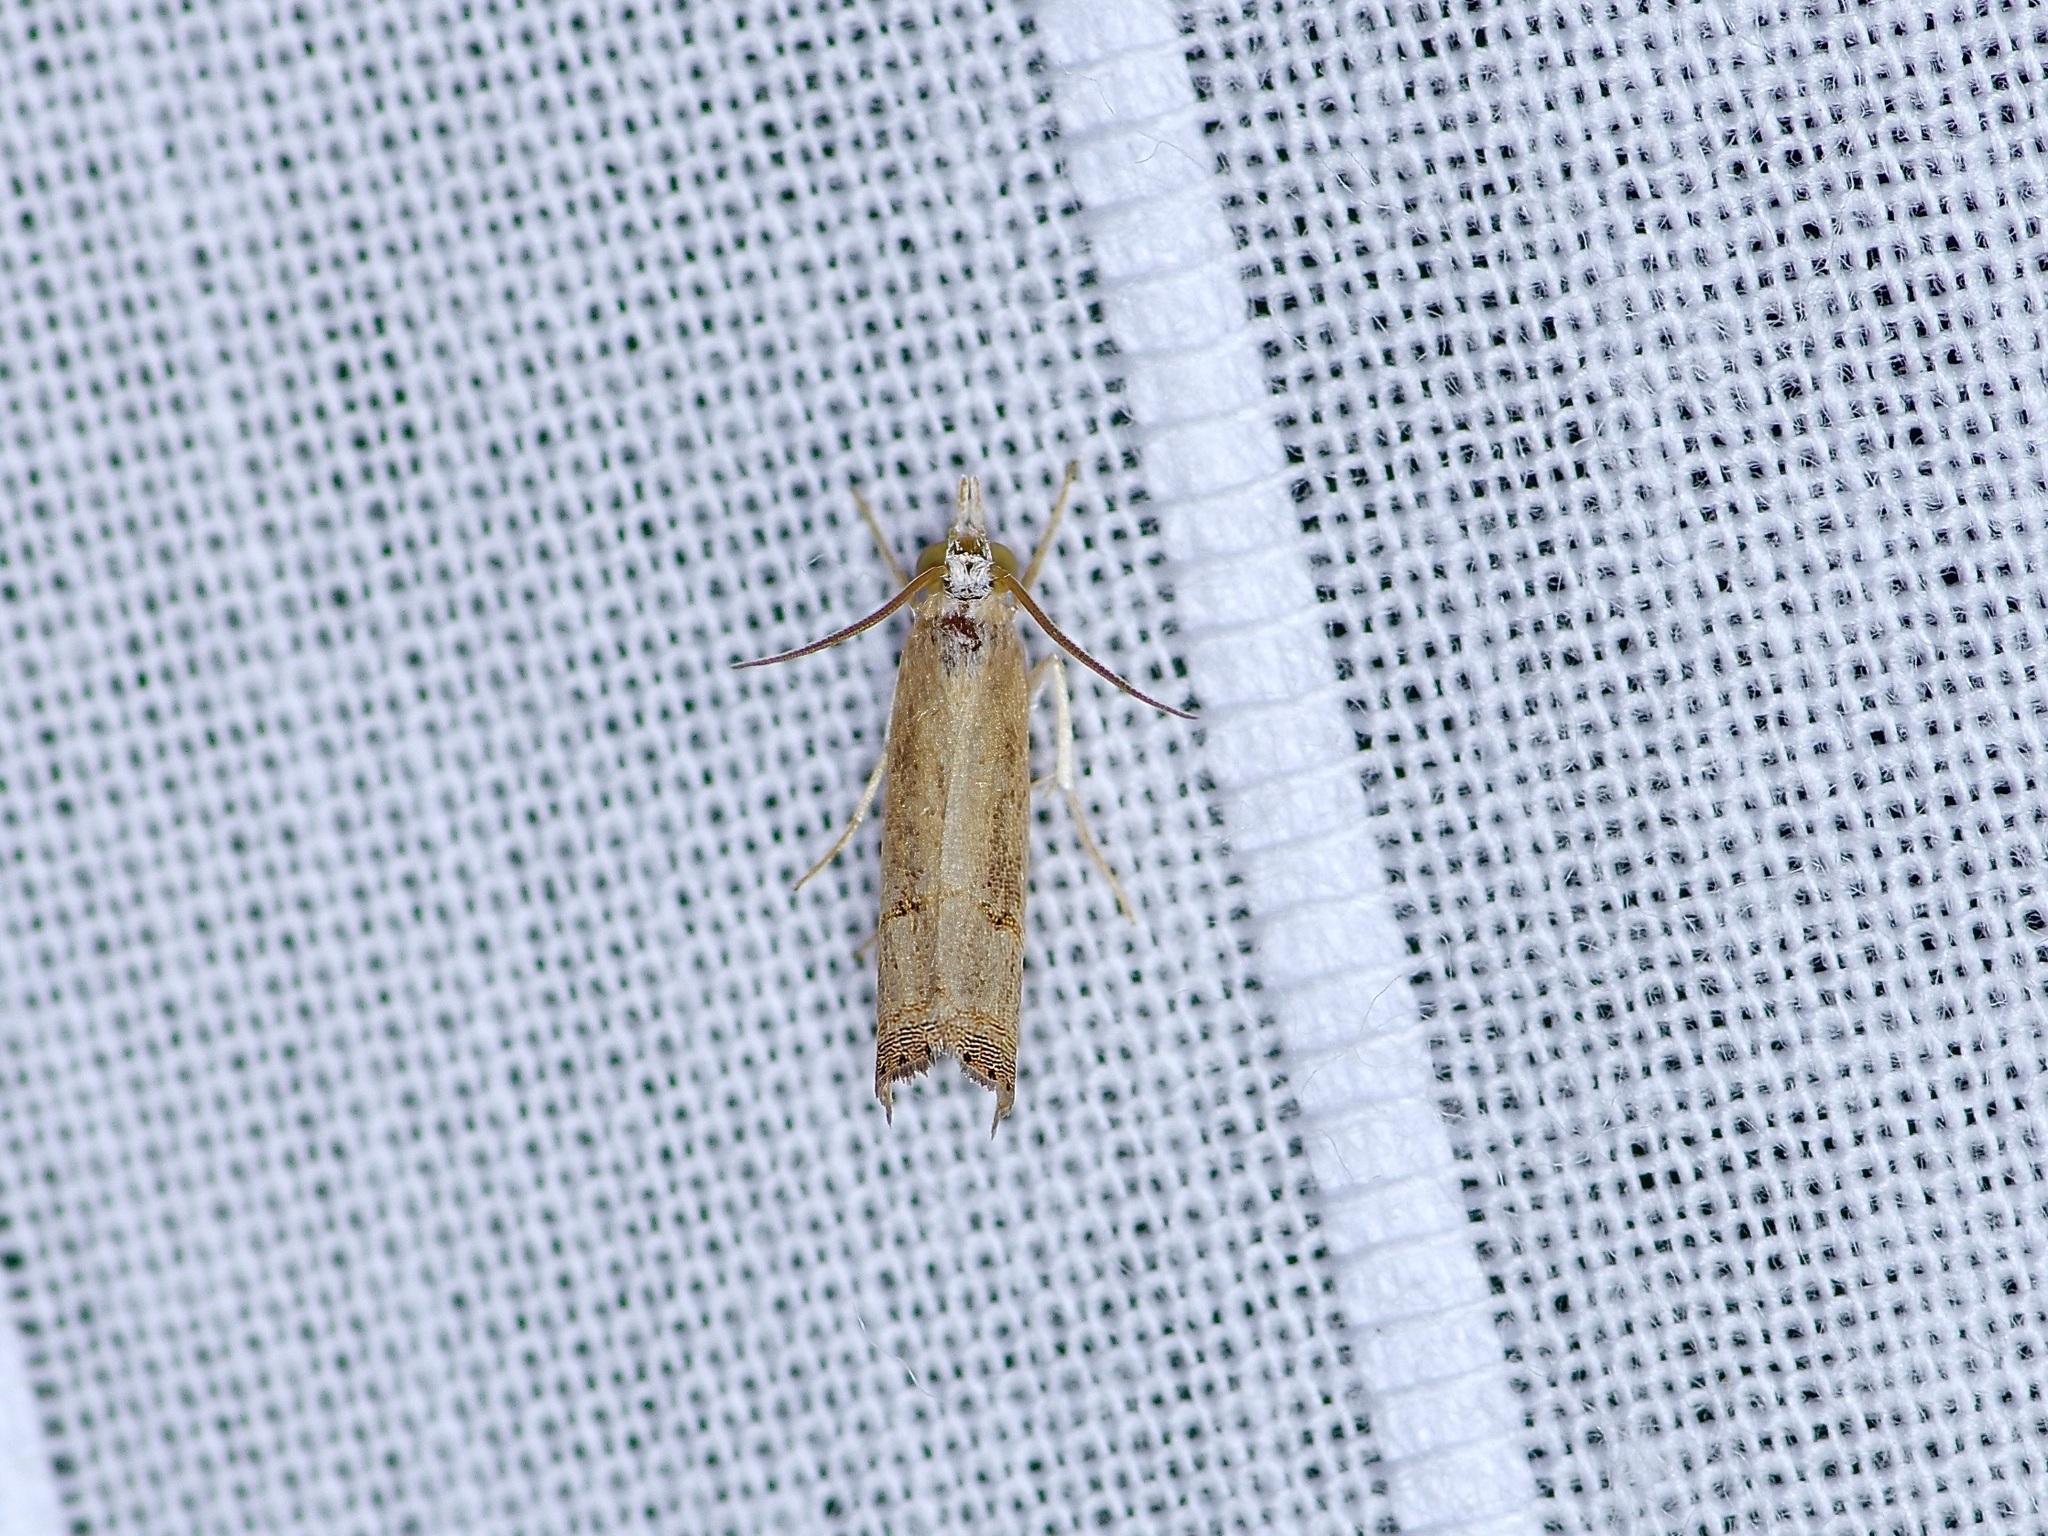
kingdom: Animalia
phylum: Arthropoda
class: Insecta
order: Lepidoptera
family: Crambidae
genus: Parapediasia
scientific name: Parapediasia teterellus
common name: Bluegrass webworm moth
